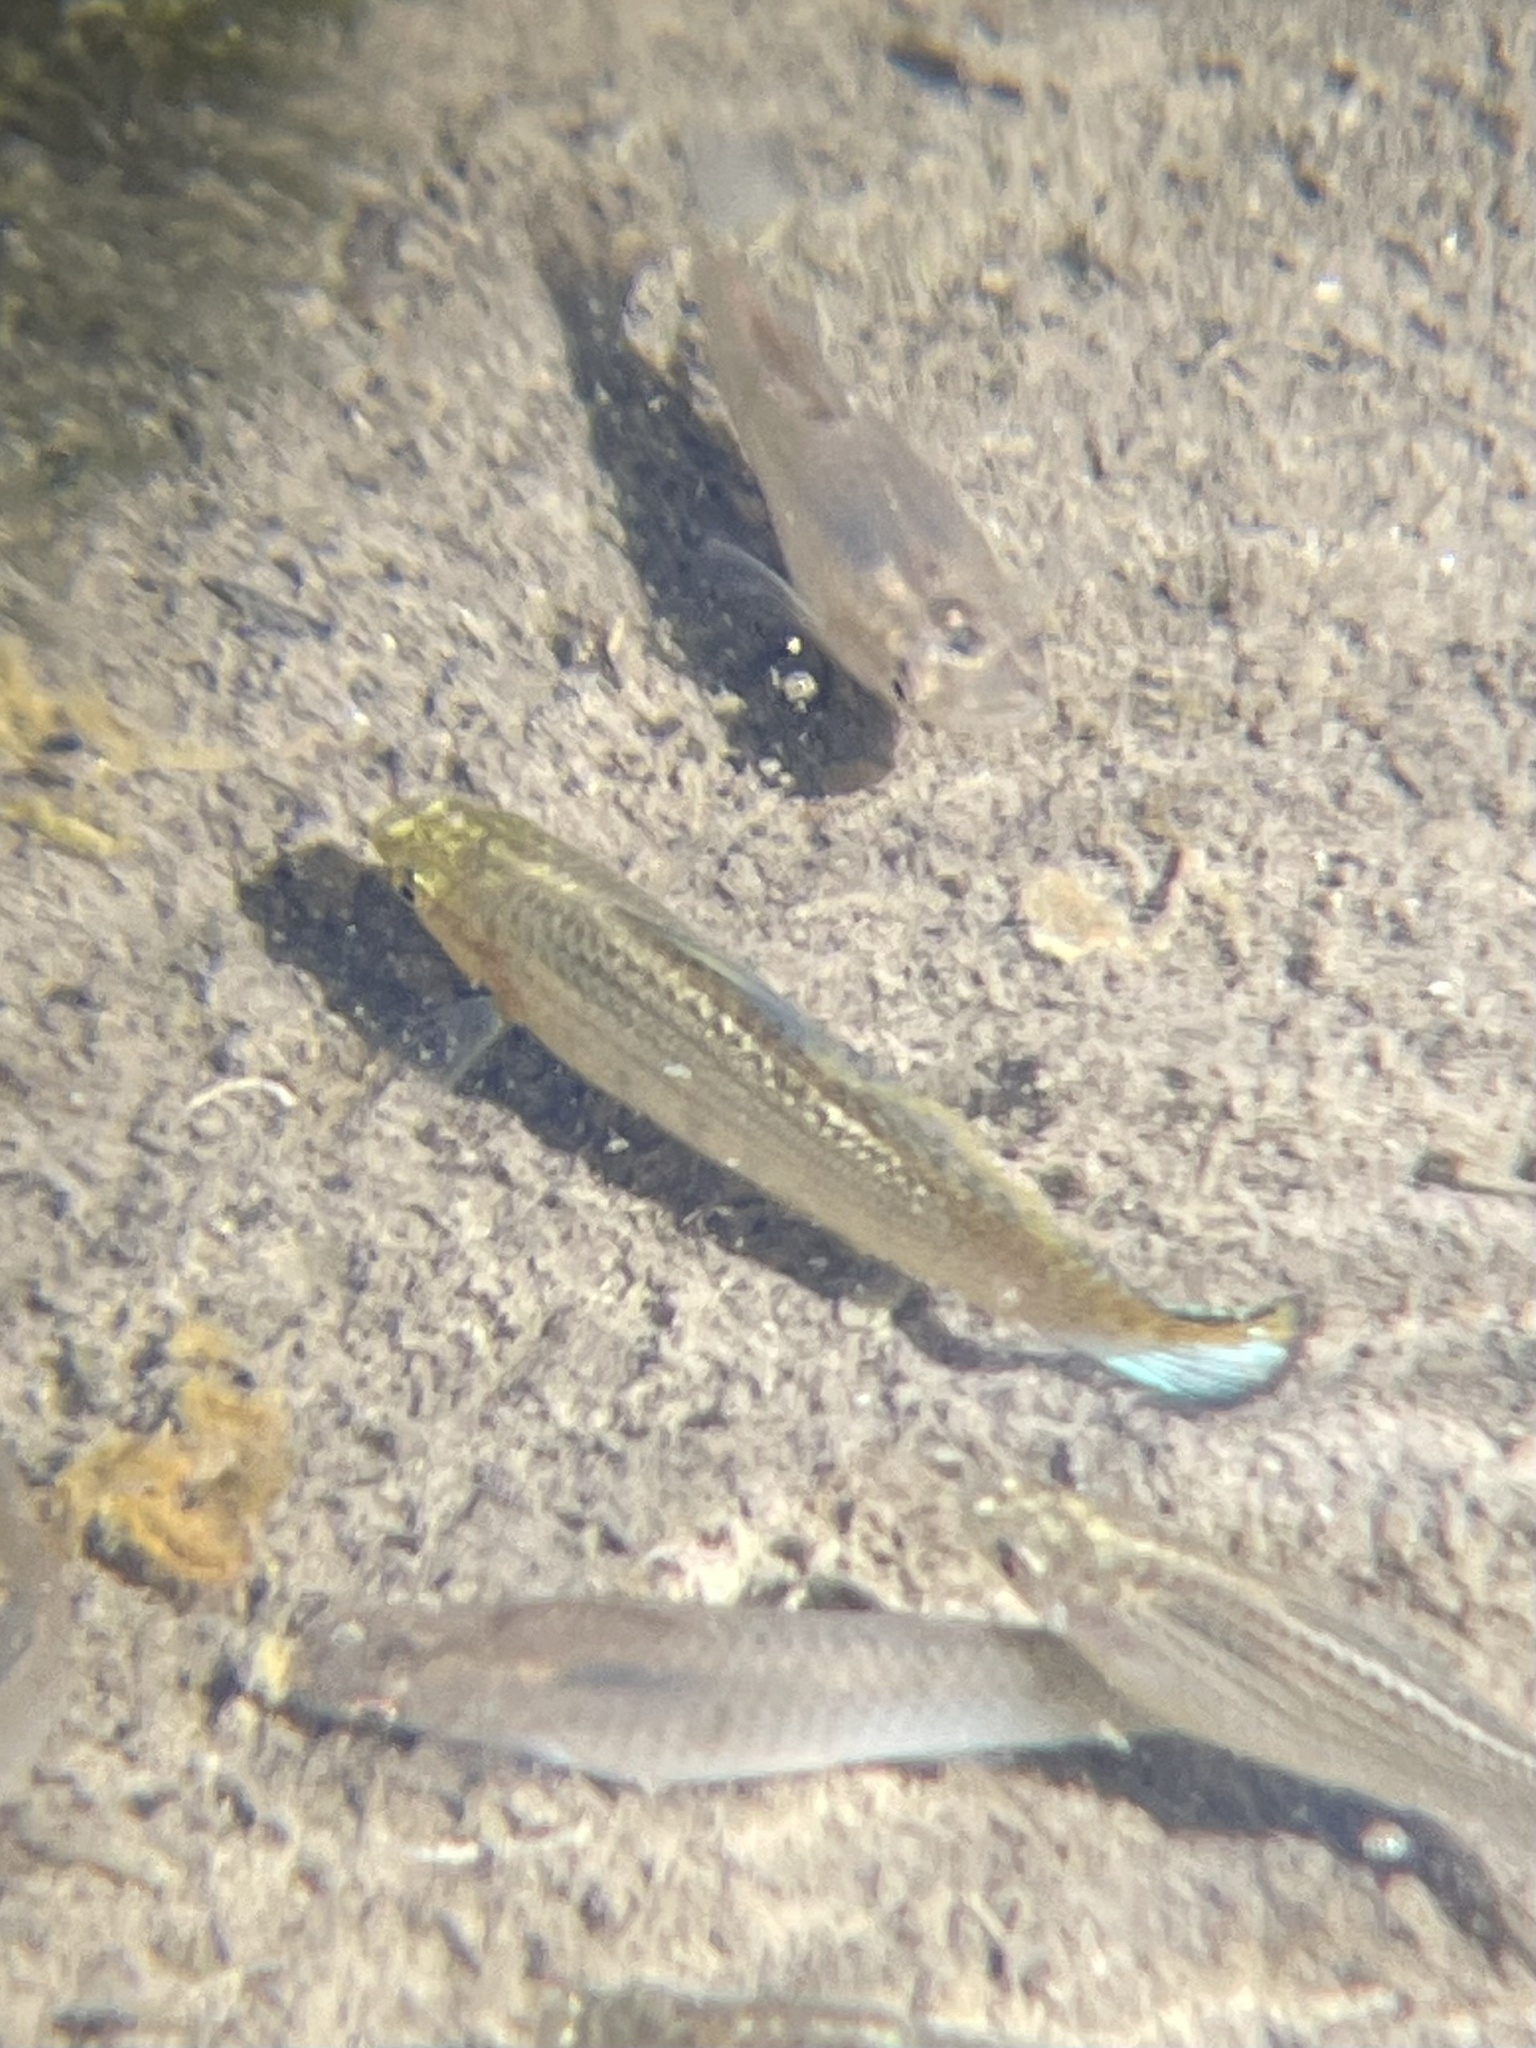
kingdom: Animalia
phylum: Chordata
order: Cyprinodontiformes
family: Poeciliidae
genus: Poecilia
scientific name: Poecilia latipinna
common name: Sailfin molly
